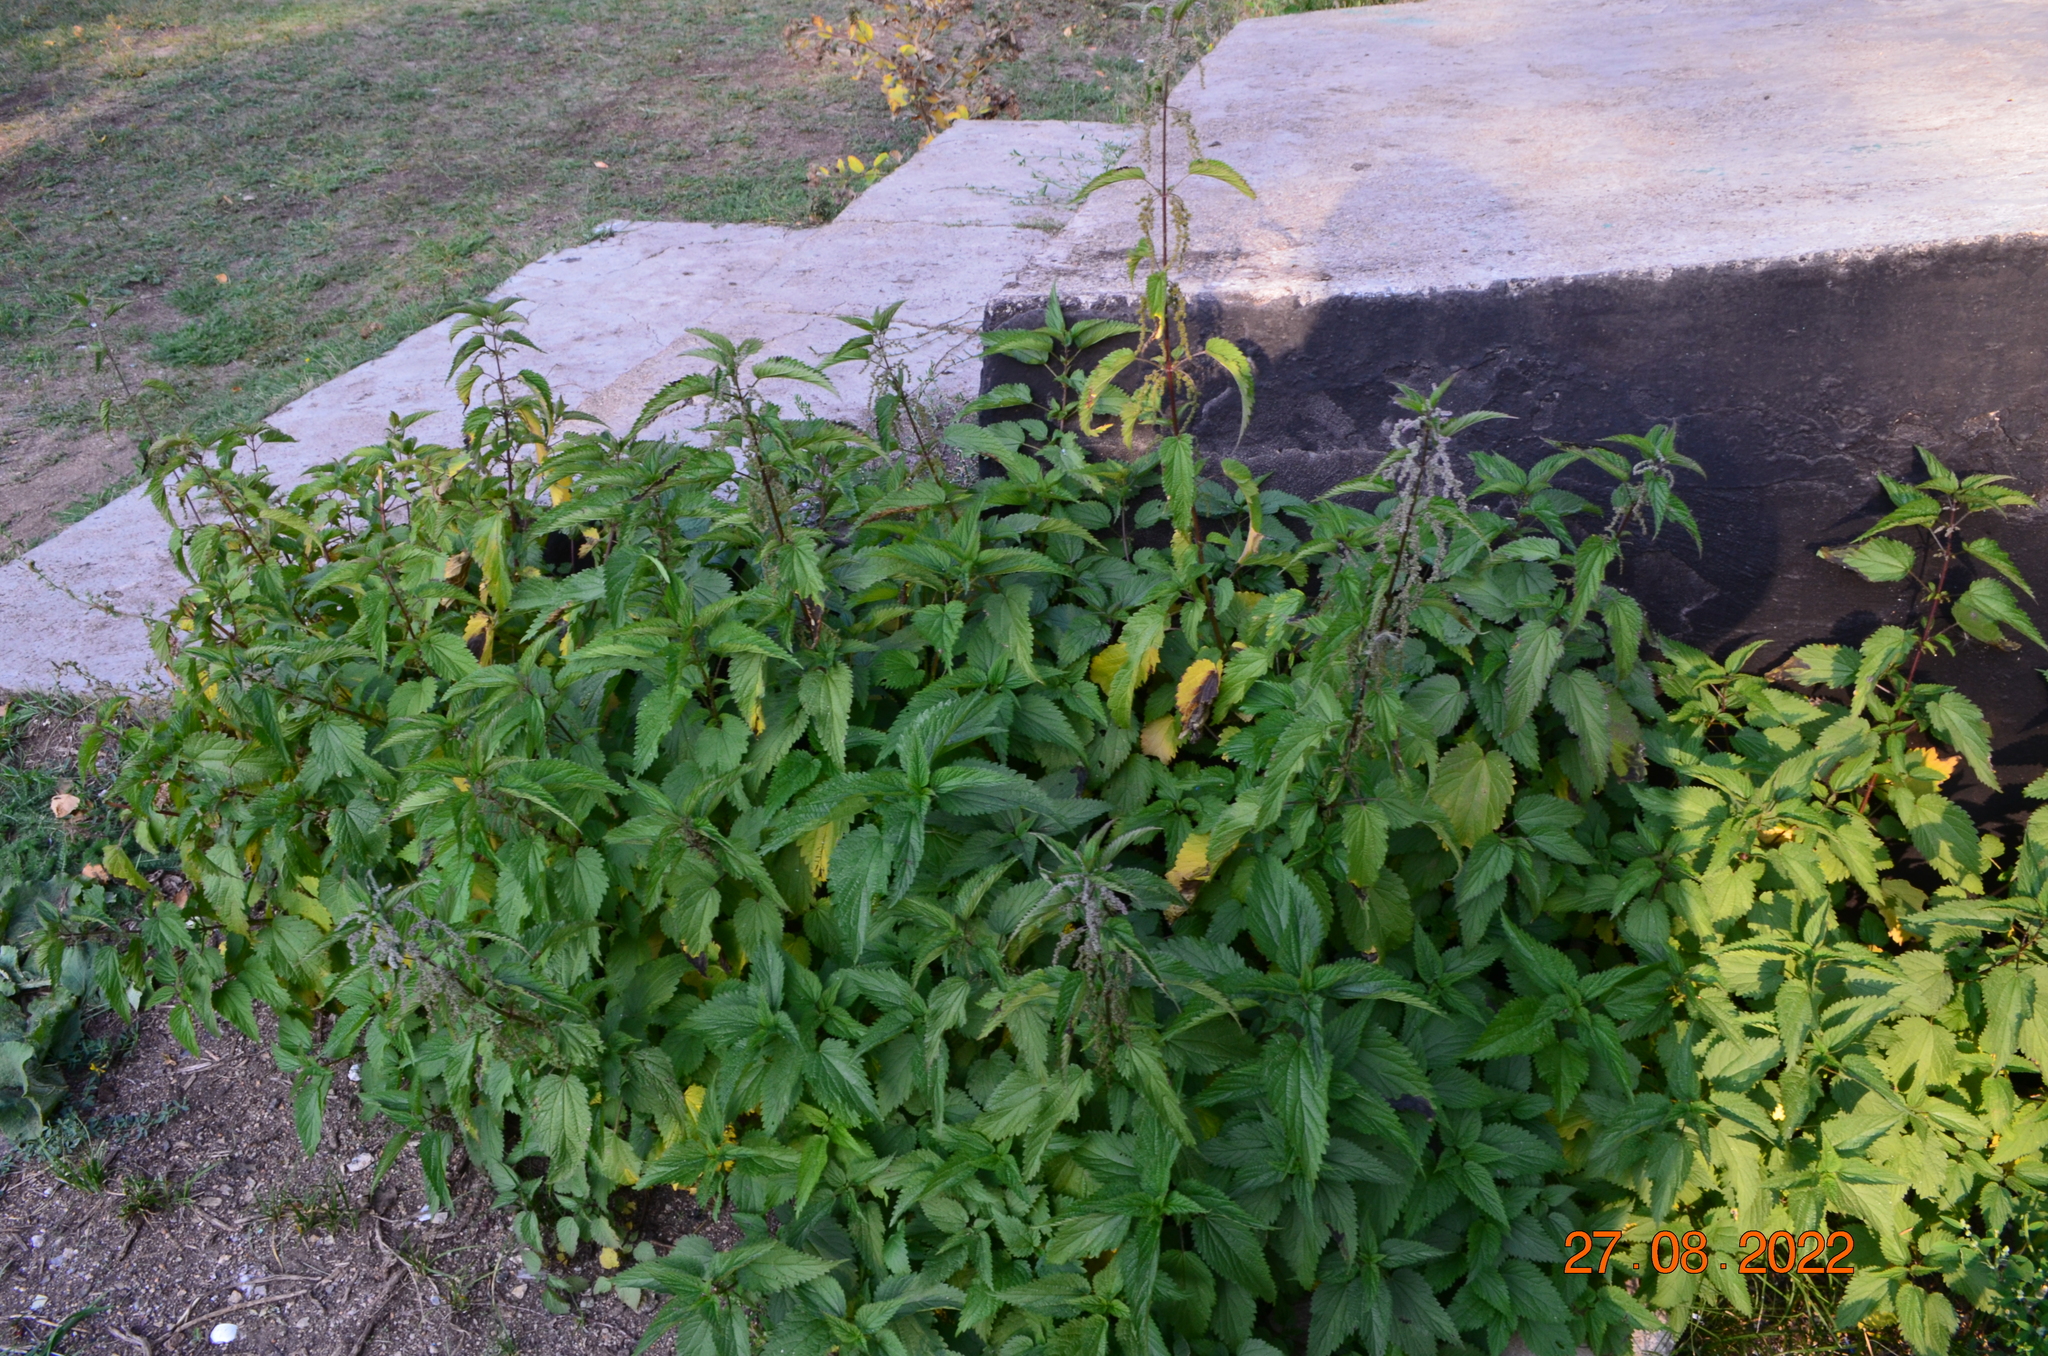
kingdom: Plantae
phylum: Tracheophyta
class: Magnoliopsida
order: Rosales
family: Urticaceae
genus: Urtica
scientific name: Urtica dioica
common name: Common nettle
